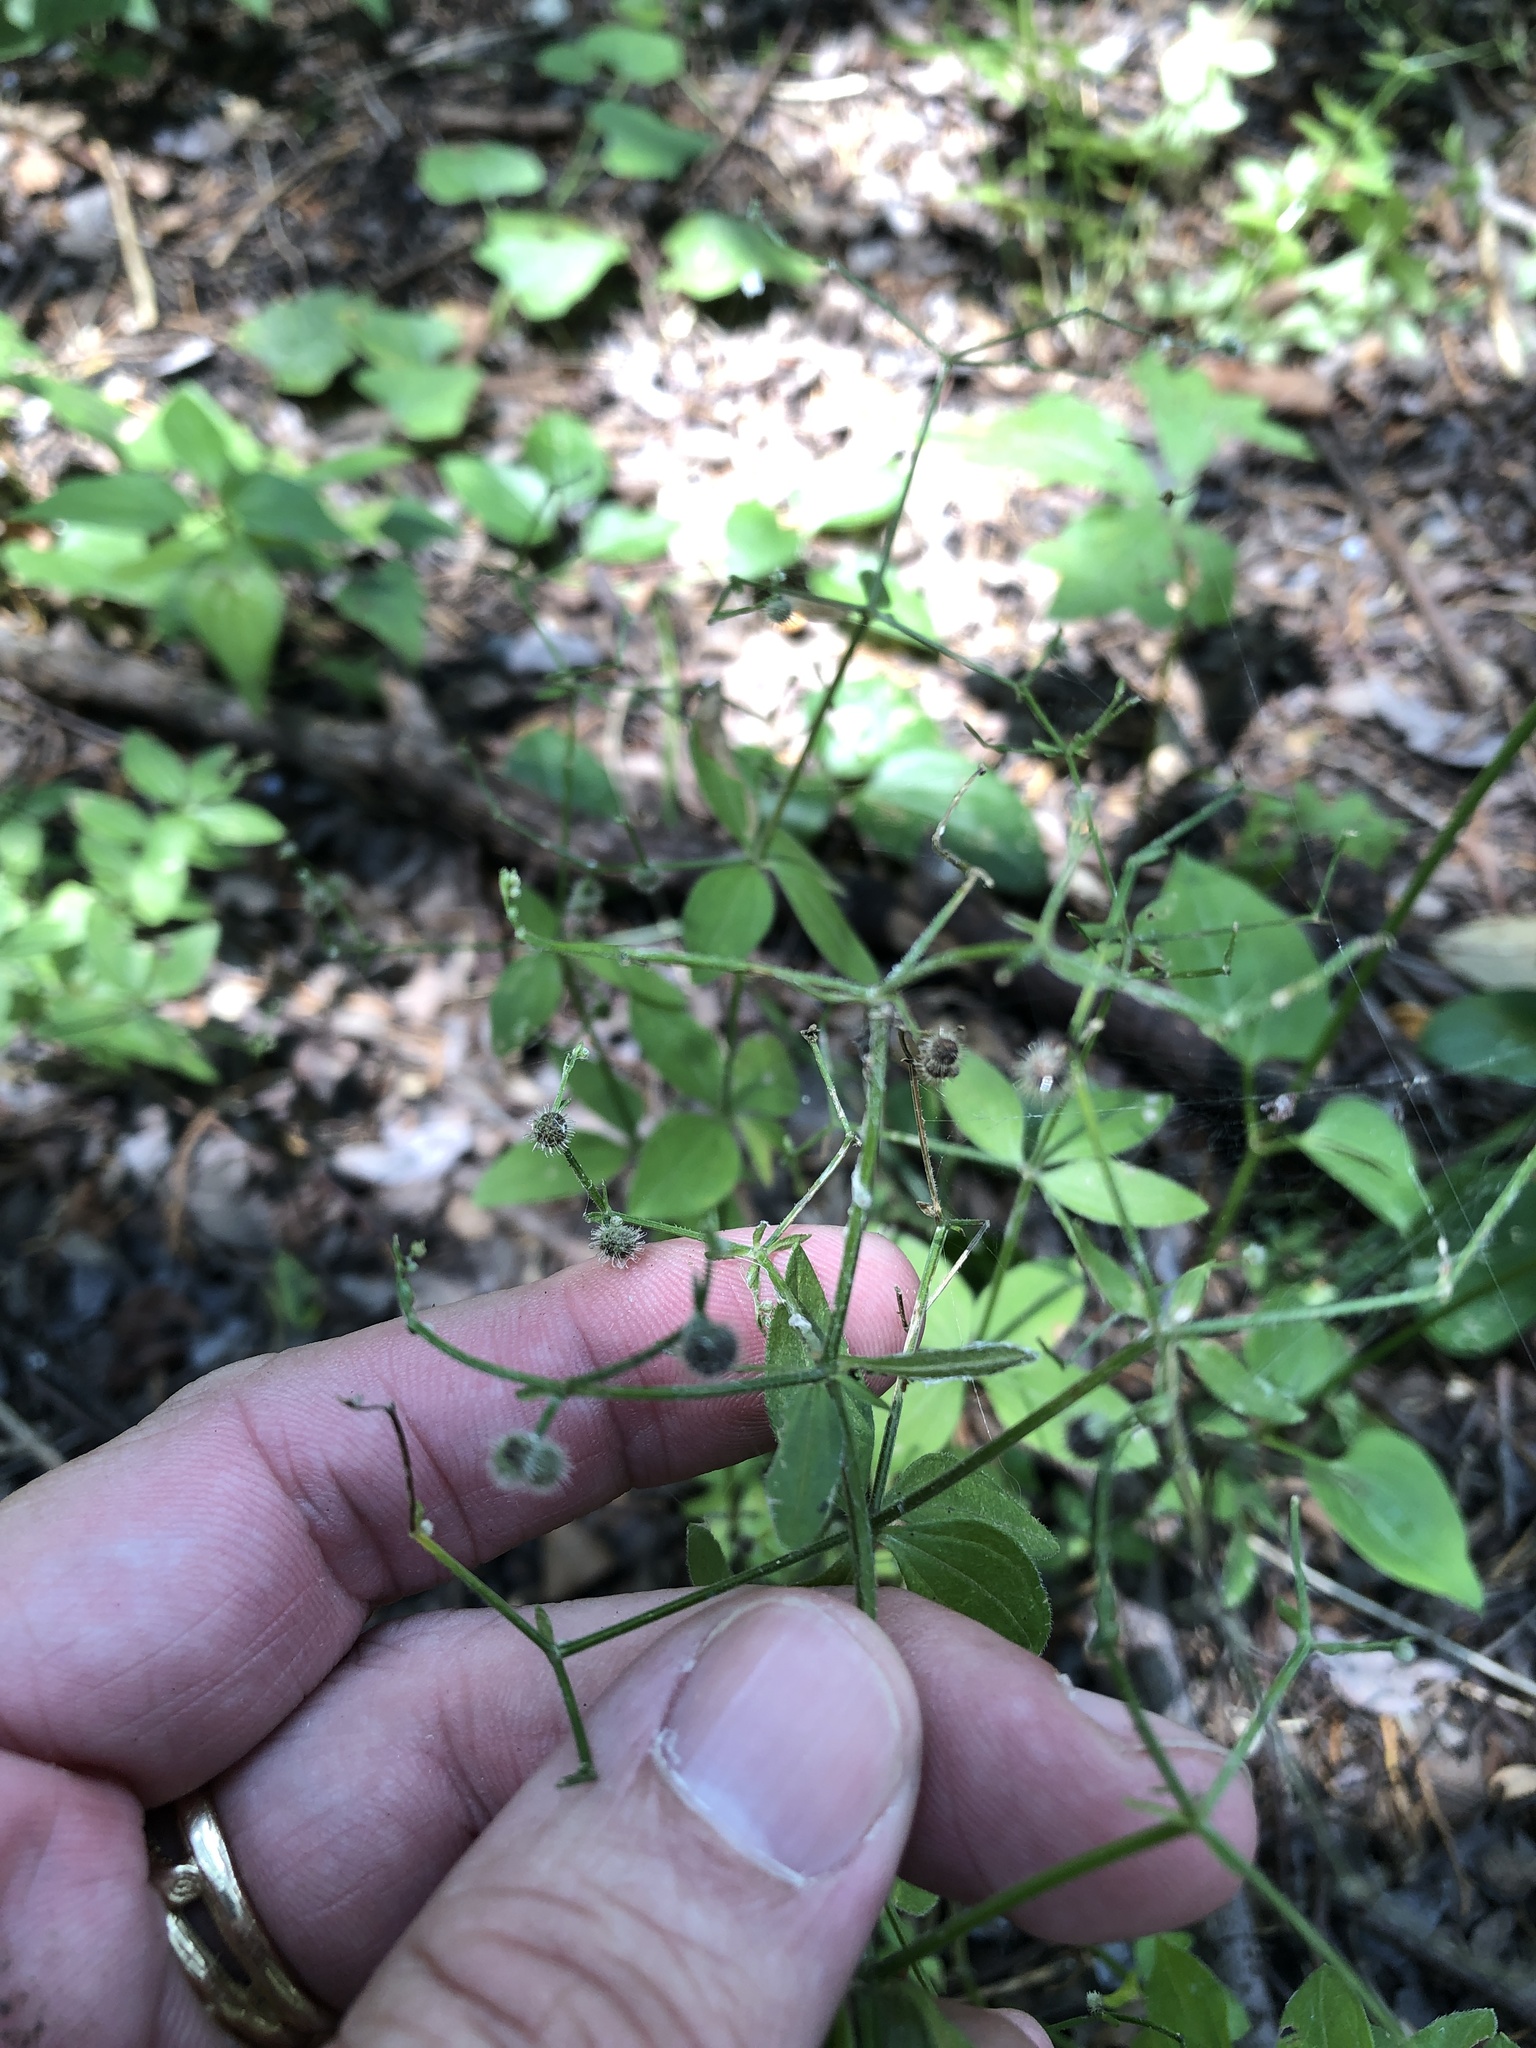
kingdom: Plantae
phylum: Tracheophyta
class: Magnoliopsida
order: Gentianales
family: Rubiaceae
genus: Galium
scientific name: Galium circaezans
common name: Forest bedstraw
